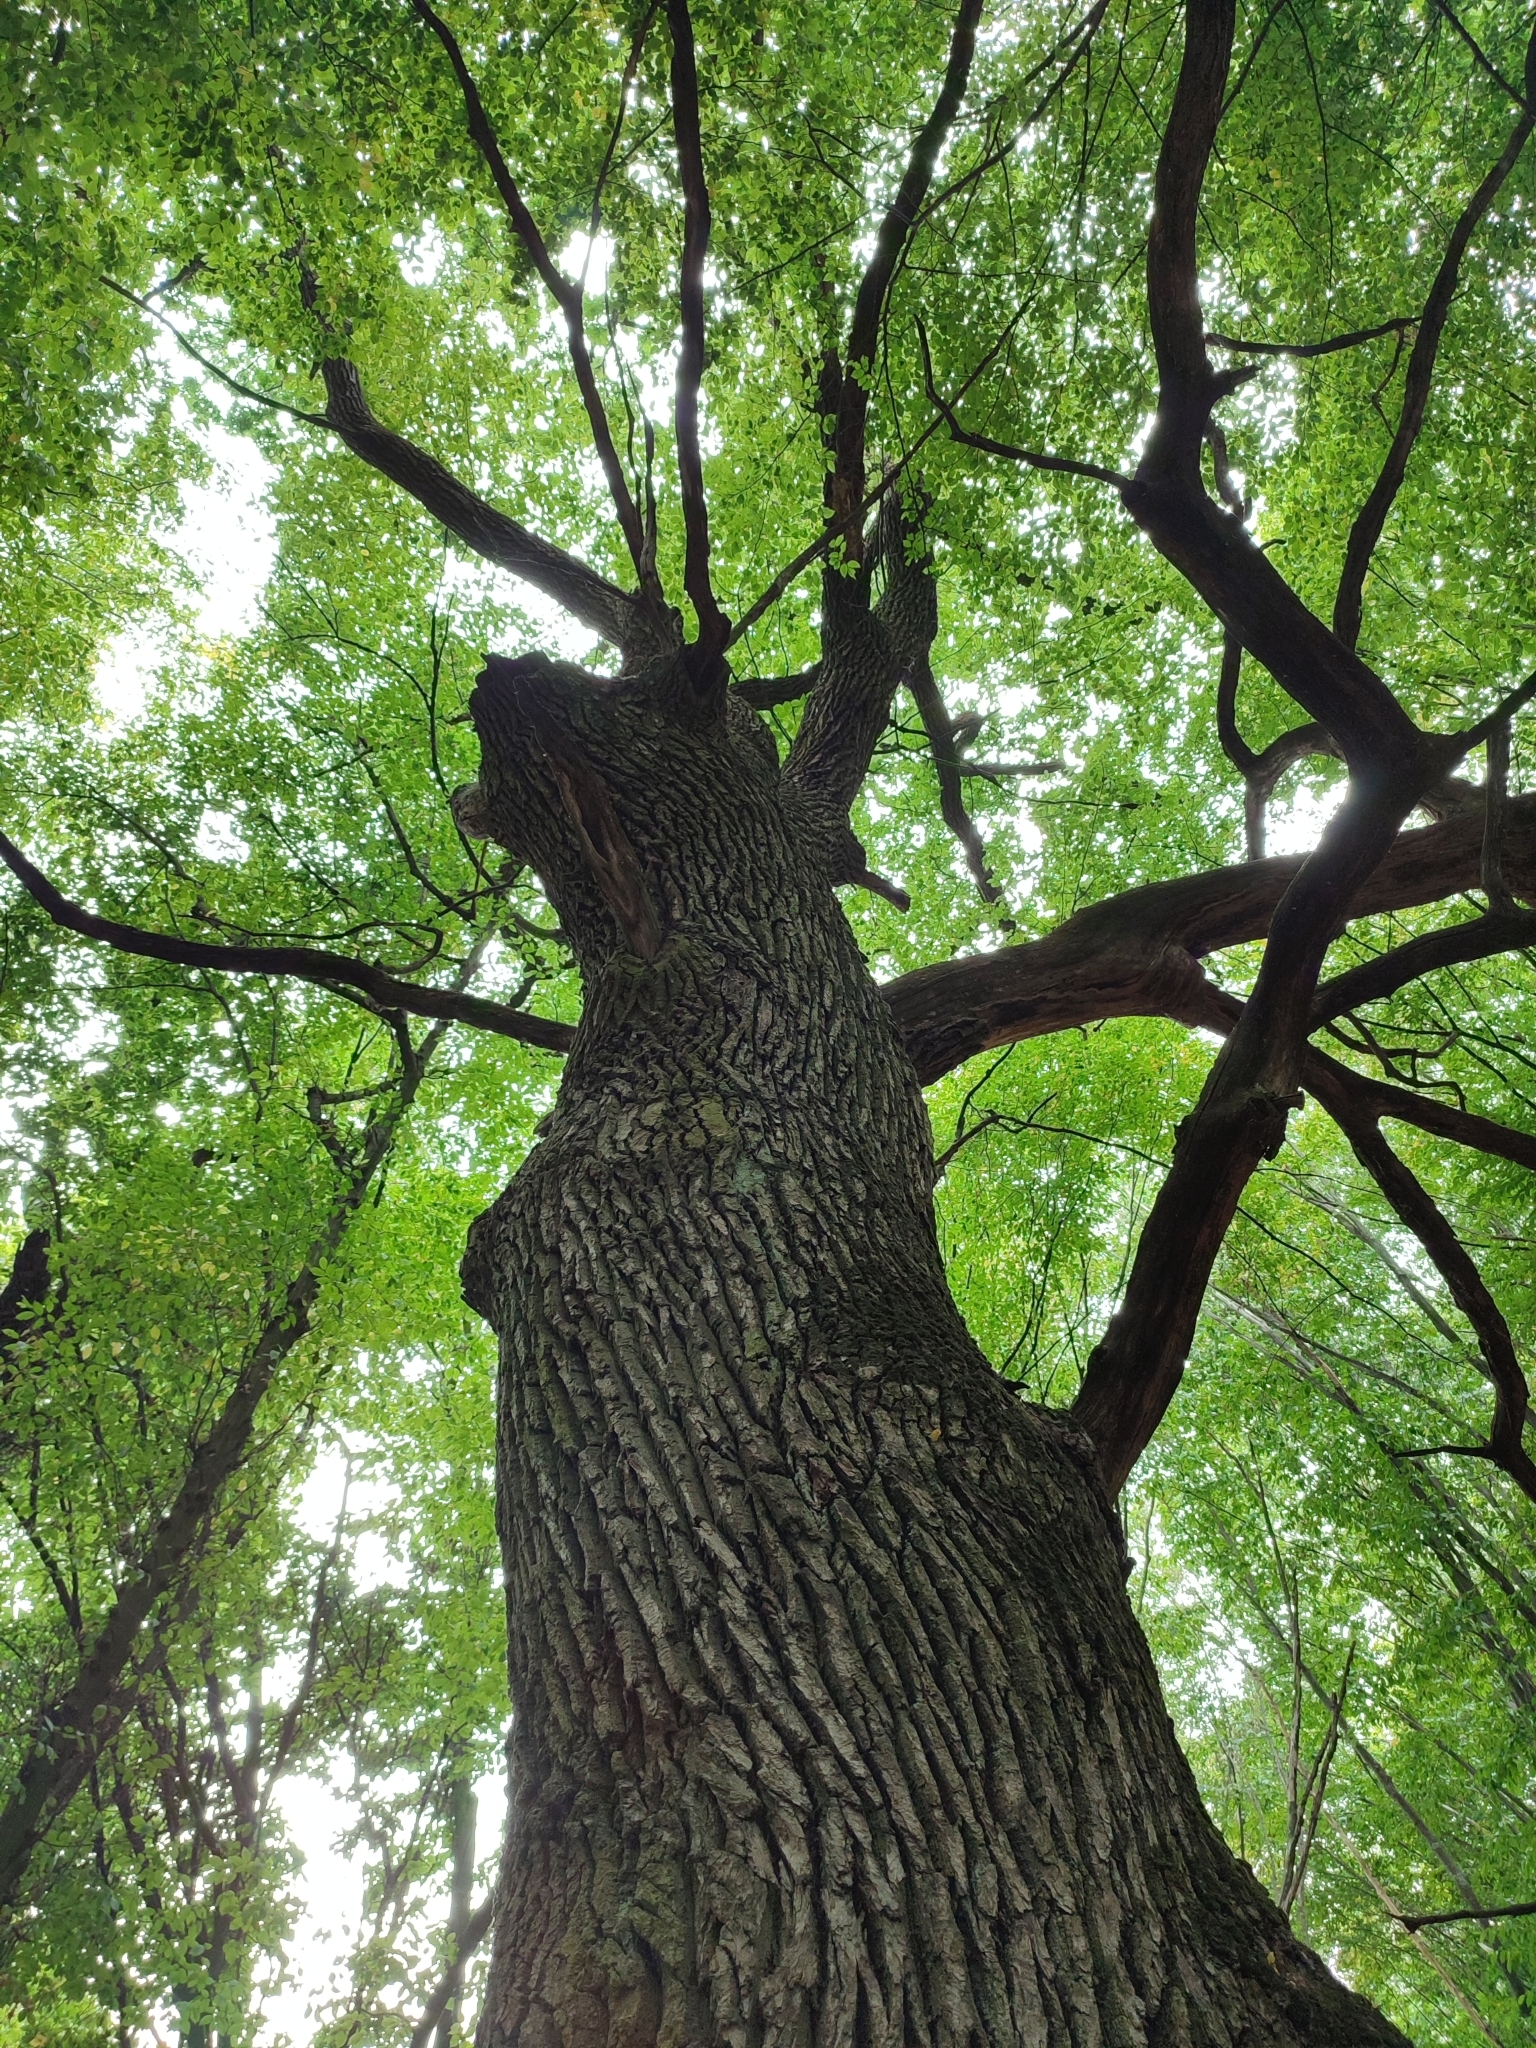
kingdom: Plantae
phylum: Tracheophyta
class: Magnoliopsida
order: Fagales
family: Fagaceae
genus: Quercus
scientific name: Quercus robur
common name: Pedunculate oak
